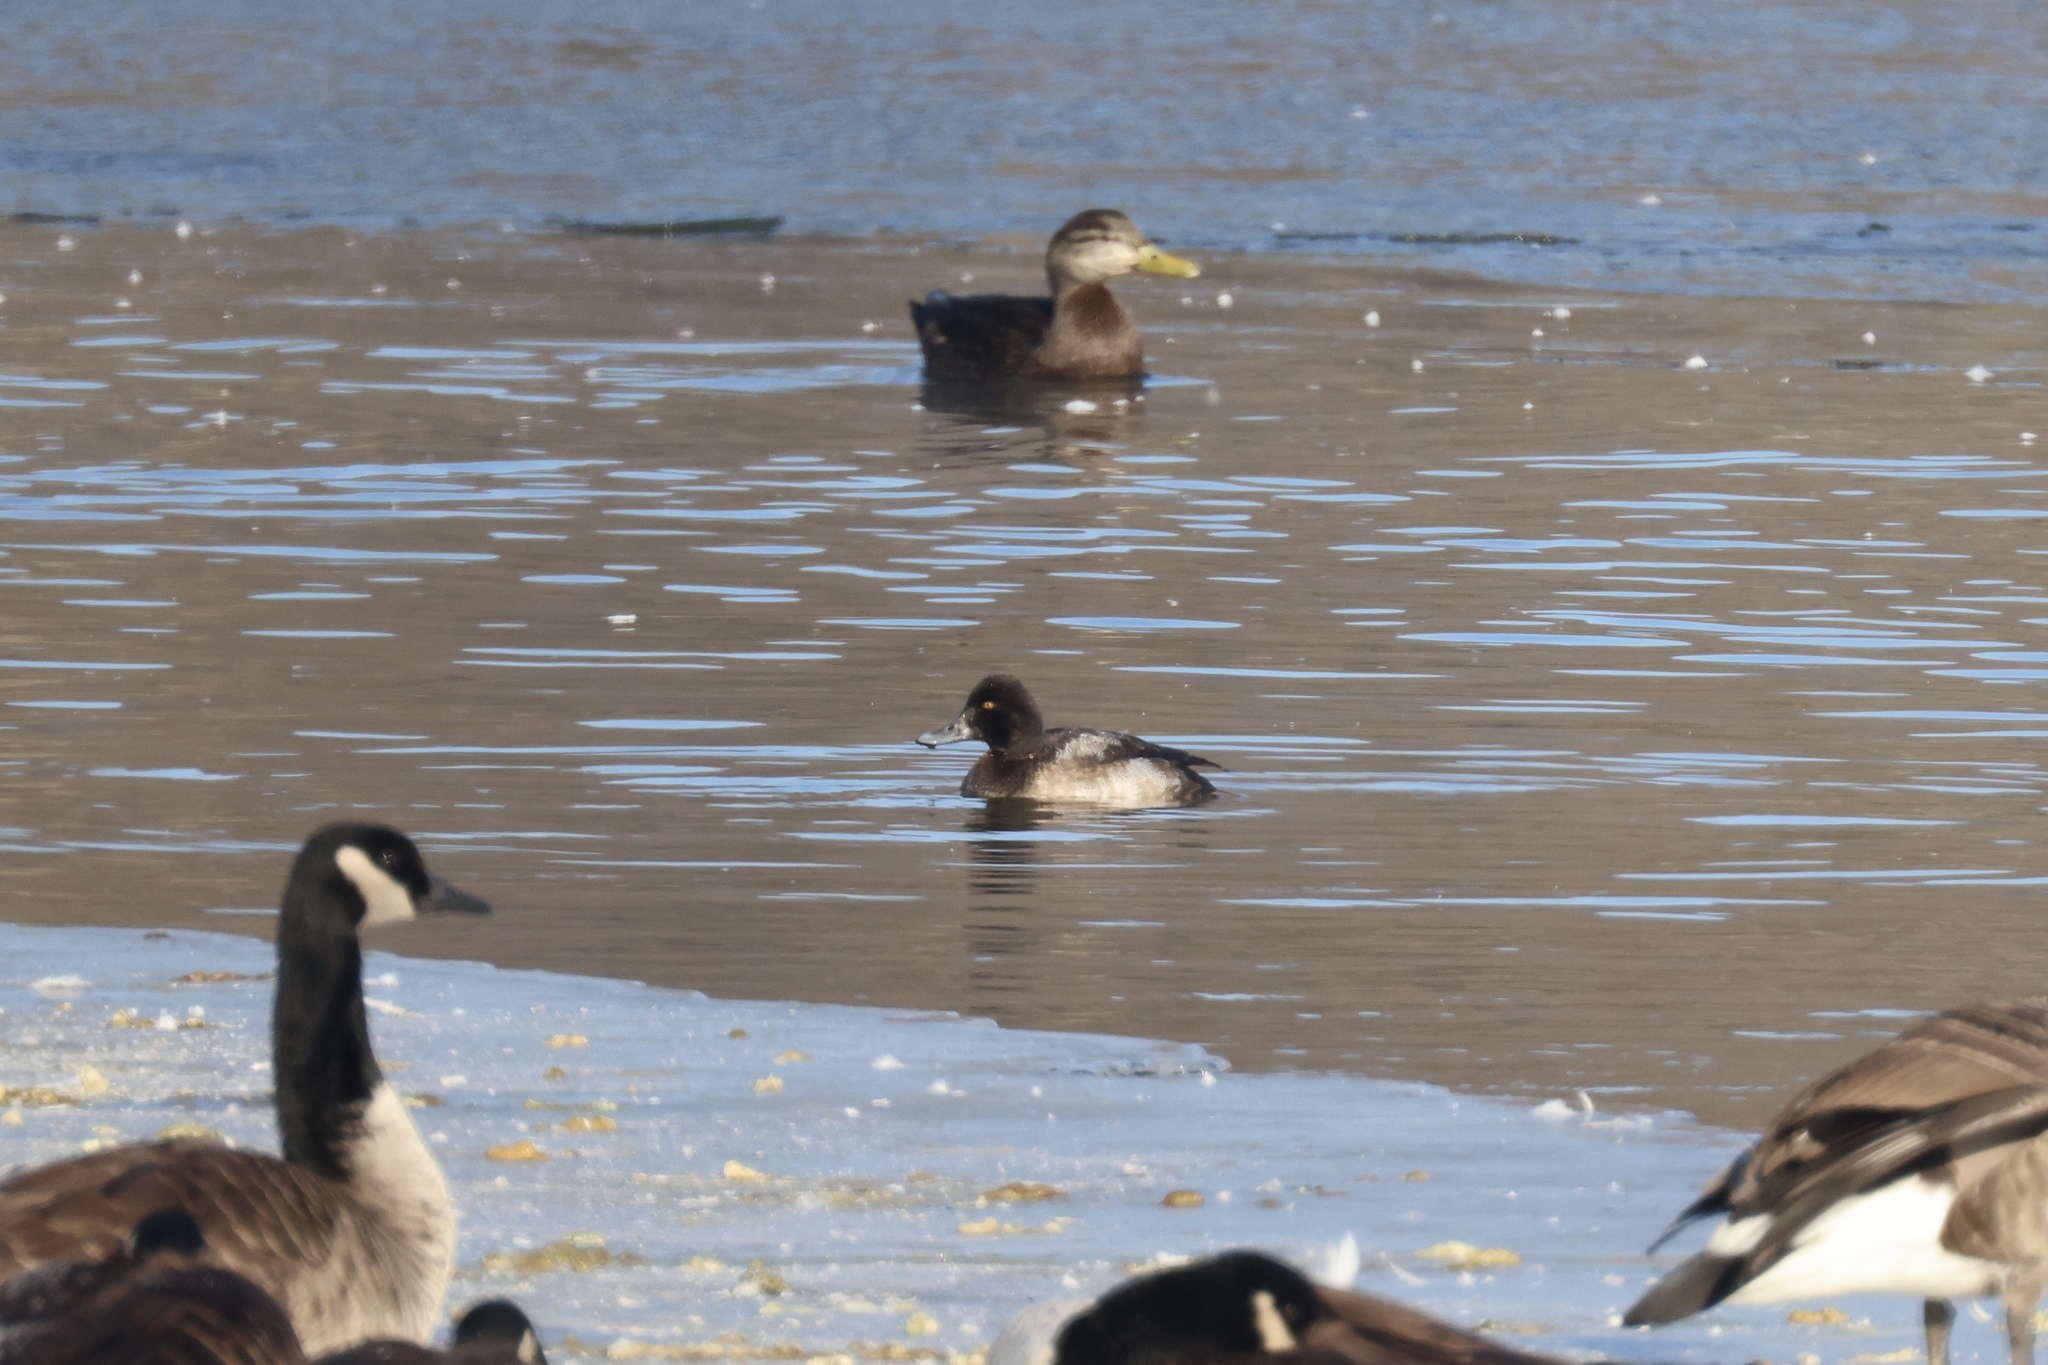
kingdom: Animalia
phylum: Chordata
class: Aves
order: Anseriformes
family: Anatidae
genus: Aythya
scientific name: Aythya affinis
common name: Lesser scaup
